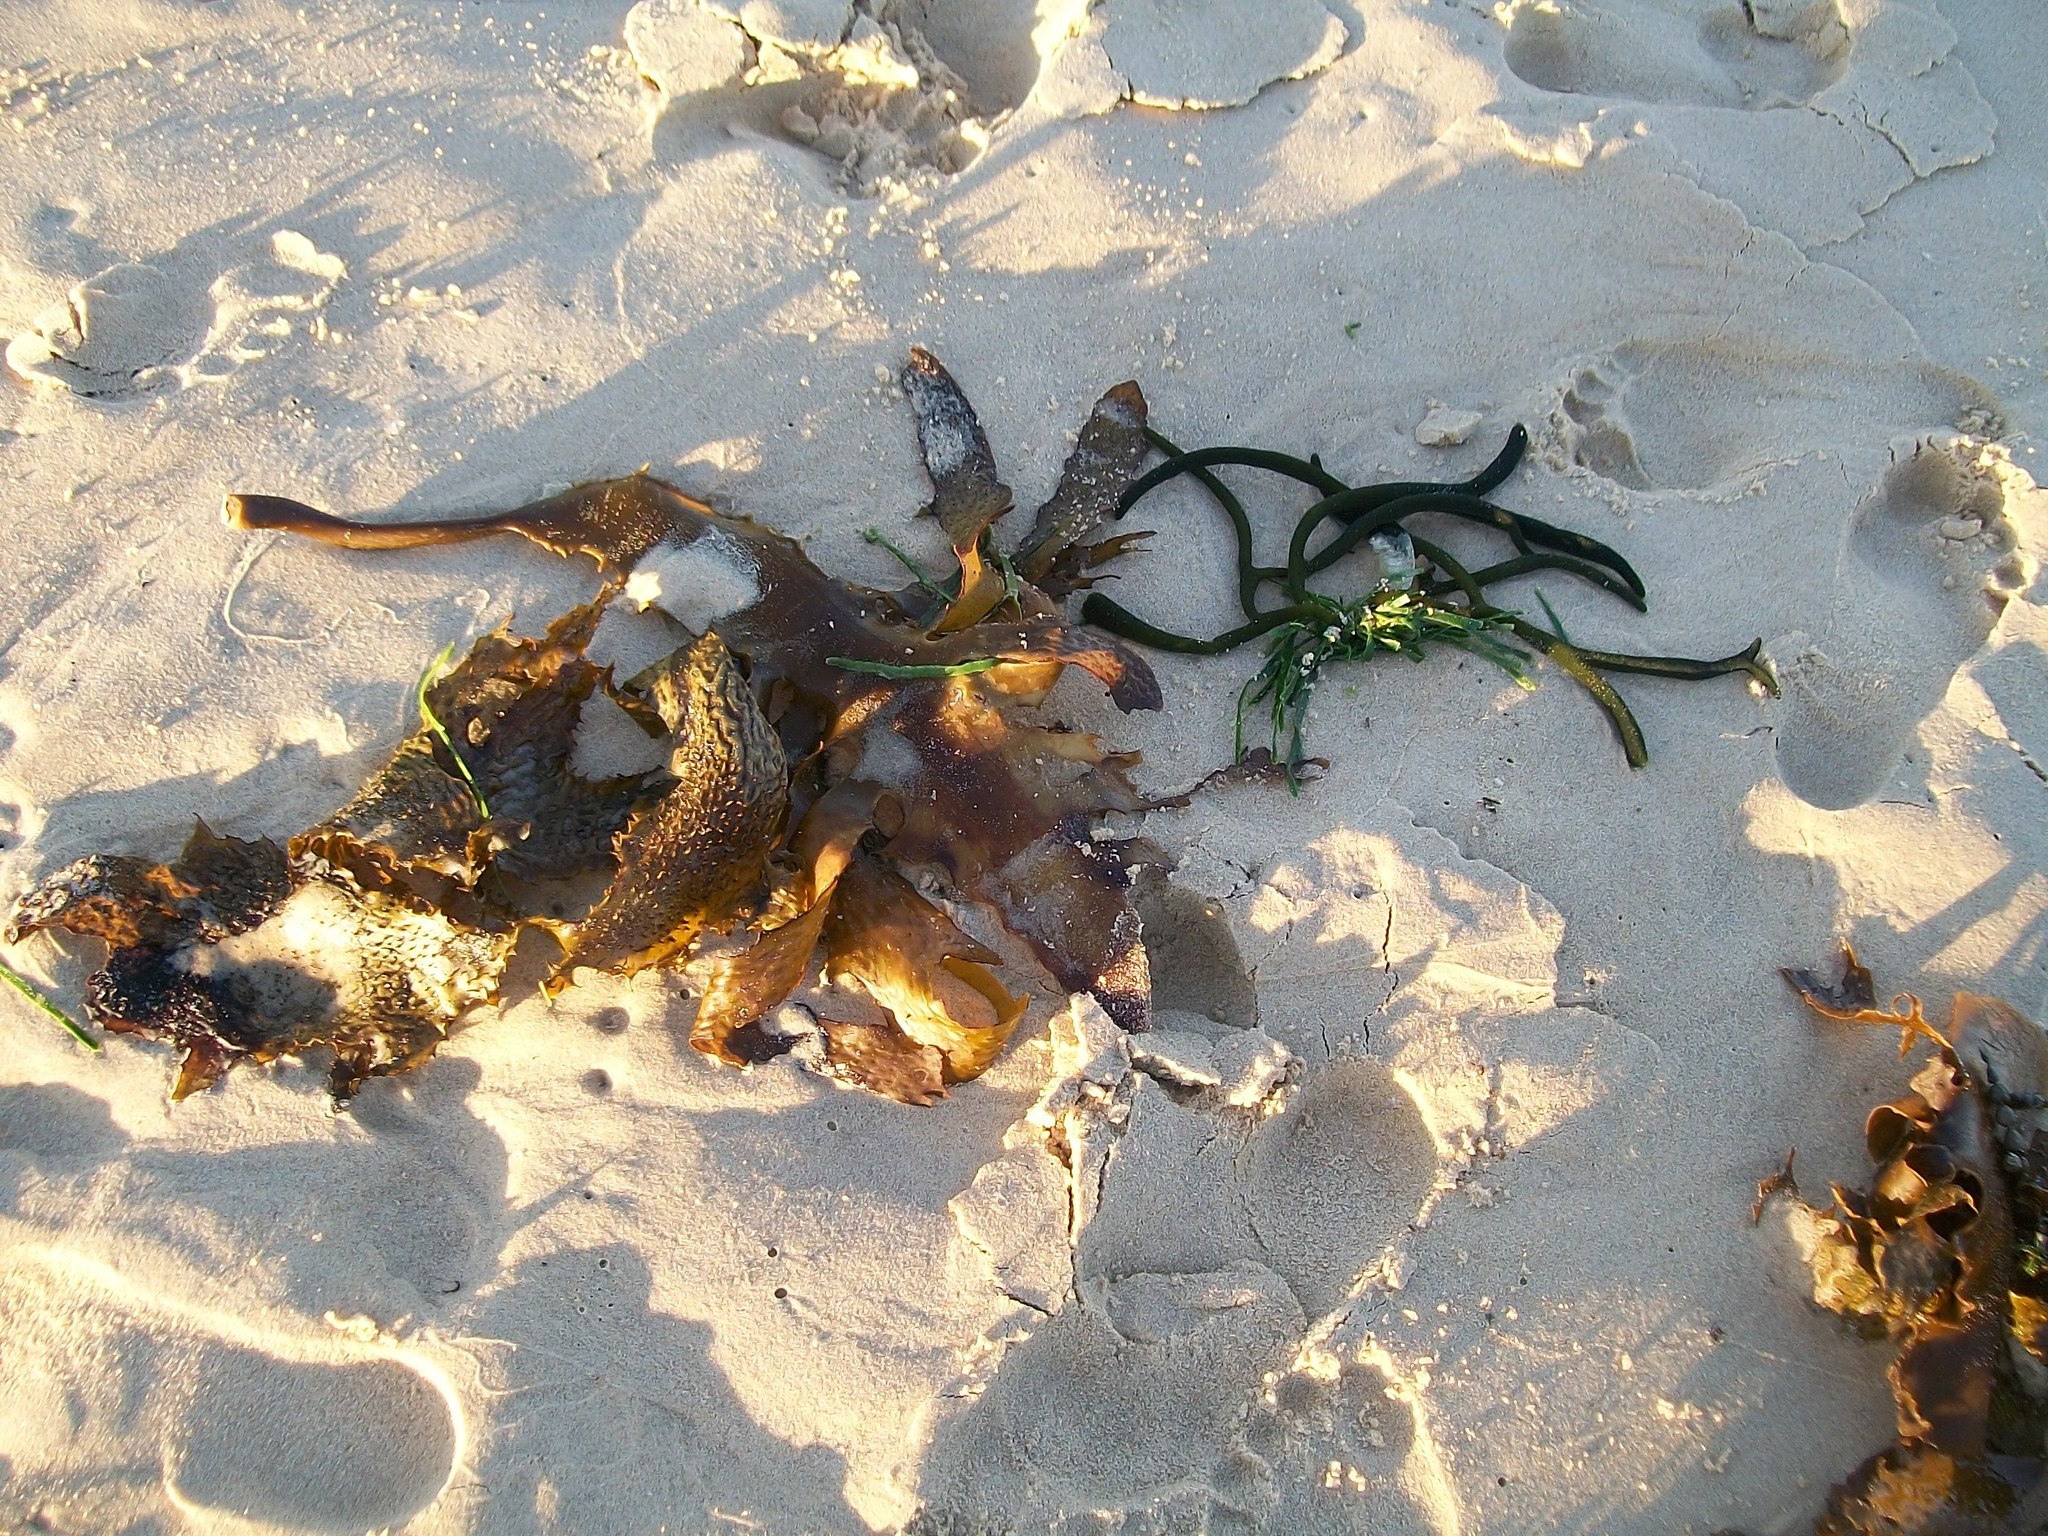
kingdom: Chromista
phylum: Ochrophyta
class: Phaeophyceae
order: Laminariales
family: Lessoniaceae
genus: Ecklonia
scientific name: Ecklonia radiata
